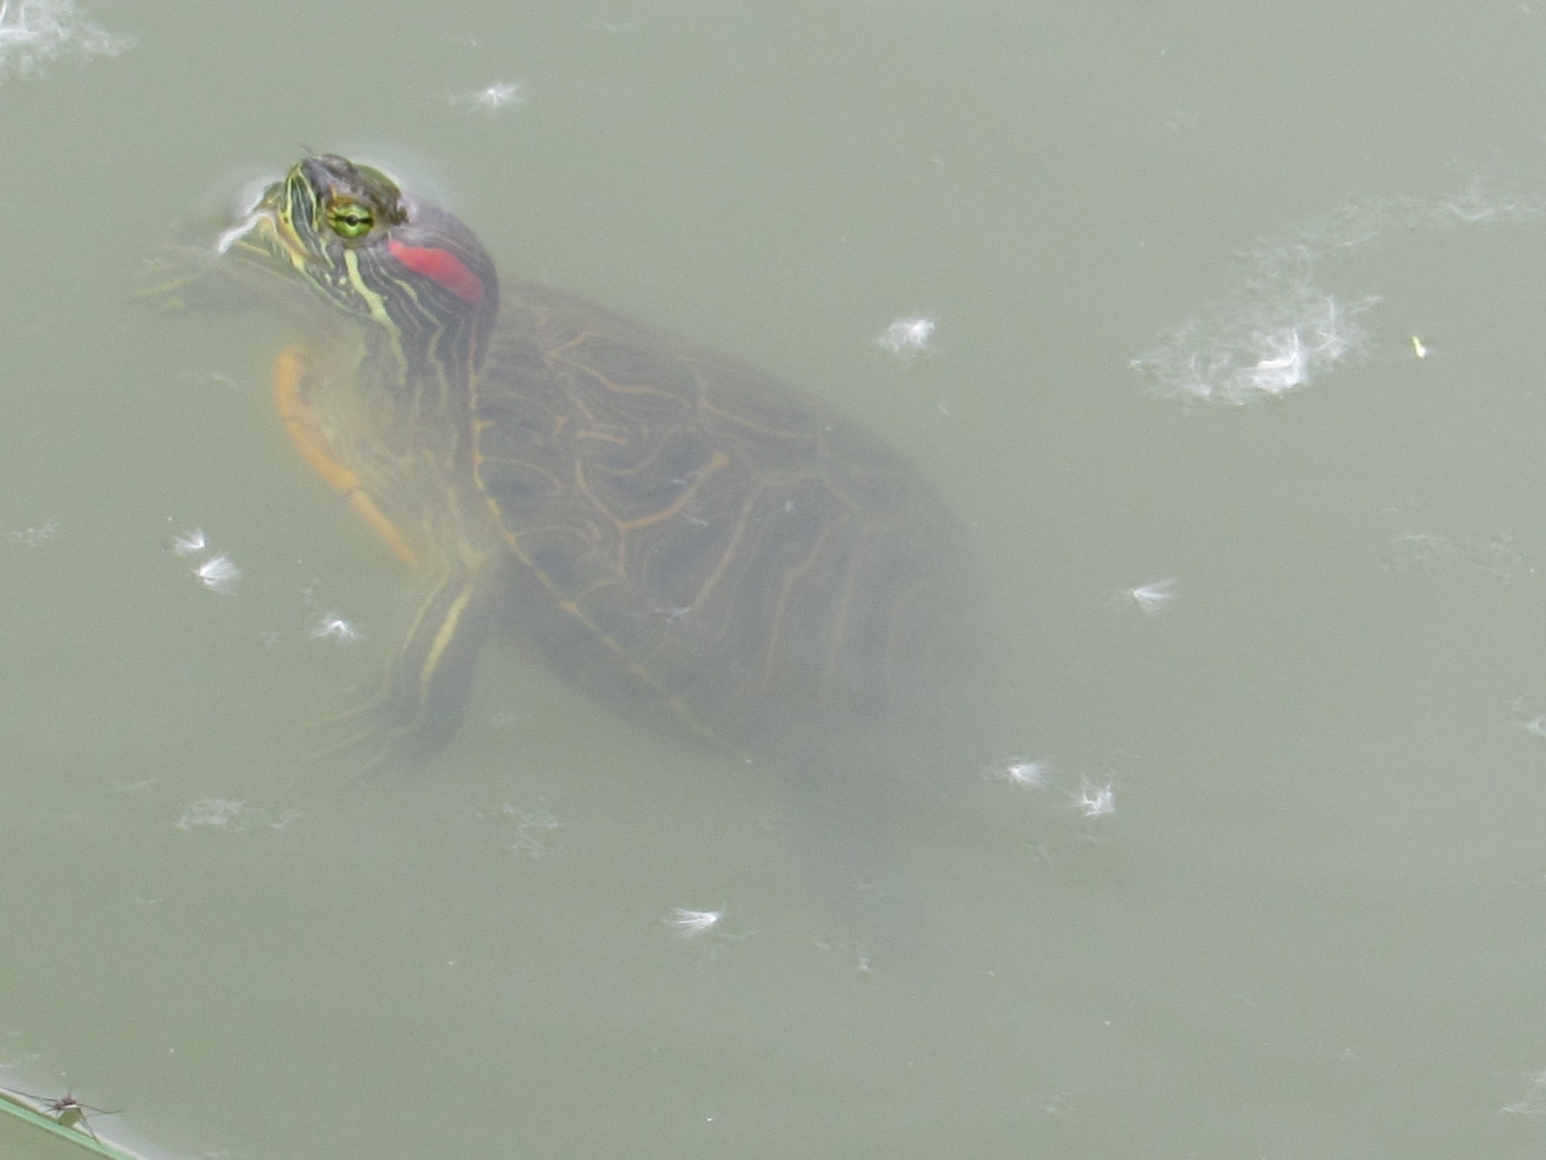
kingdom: Animalia
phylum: Chordata
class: Testudines
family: Emydidae
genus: Trachemys
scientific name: Trachemys scripta
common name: Slider
